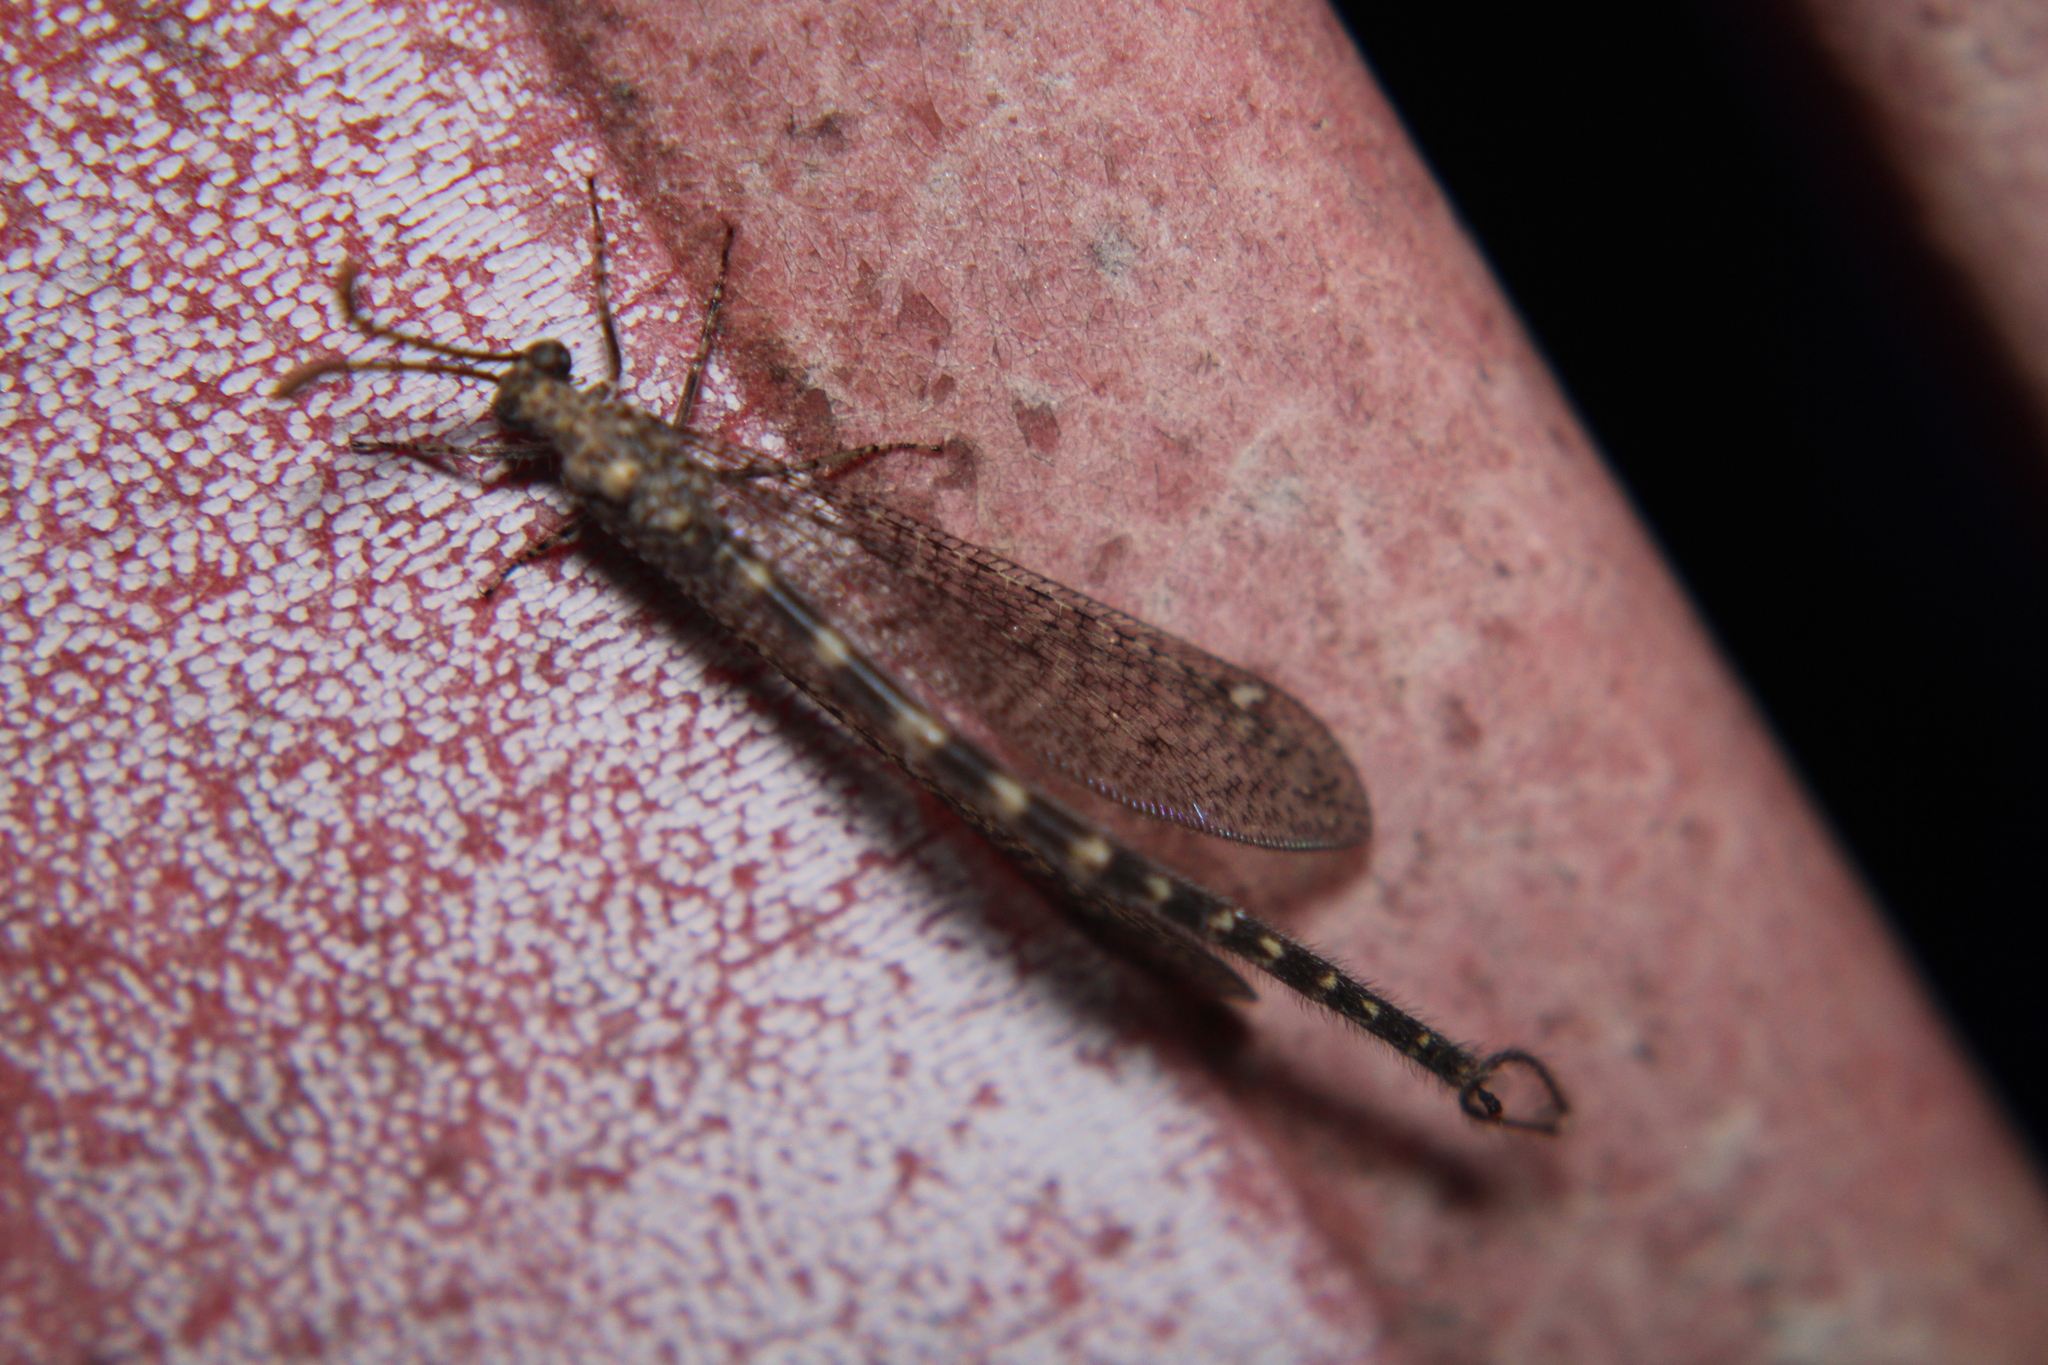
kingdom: Animalia
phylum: Arthropoda
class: Insecta
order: Neuroptera
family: Myrmeleontidae
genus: Brachynemurus
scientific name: Brachynemurus sackeni
